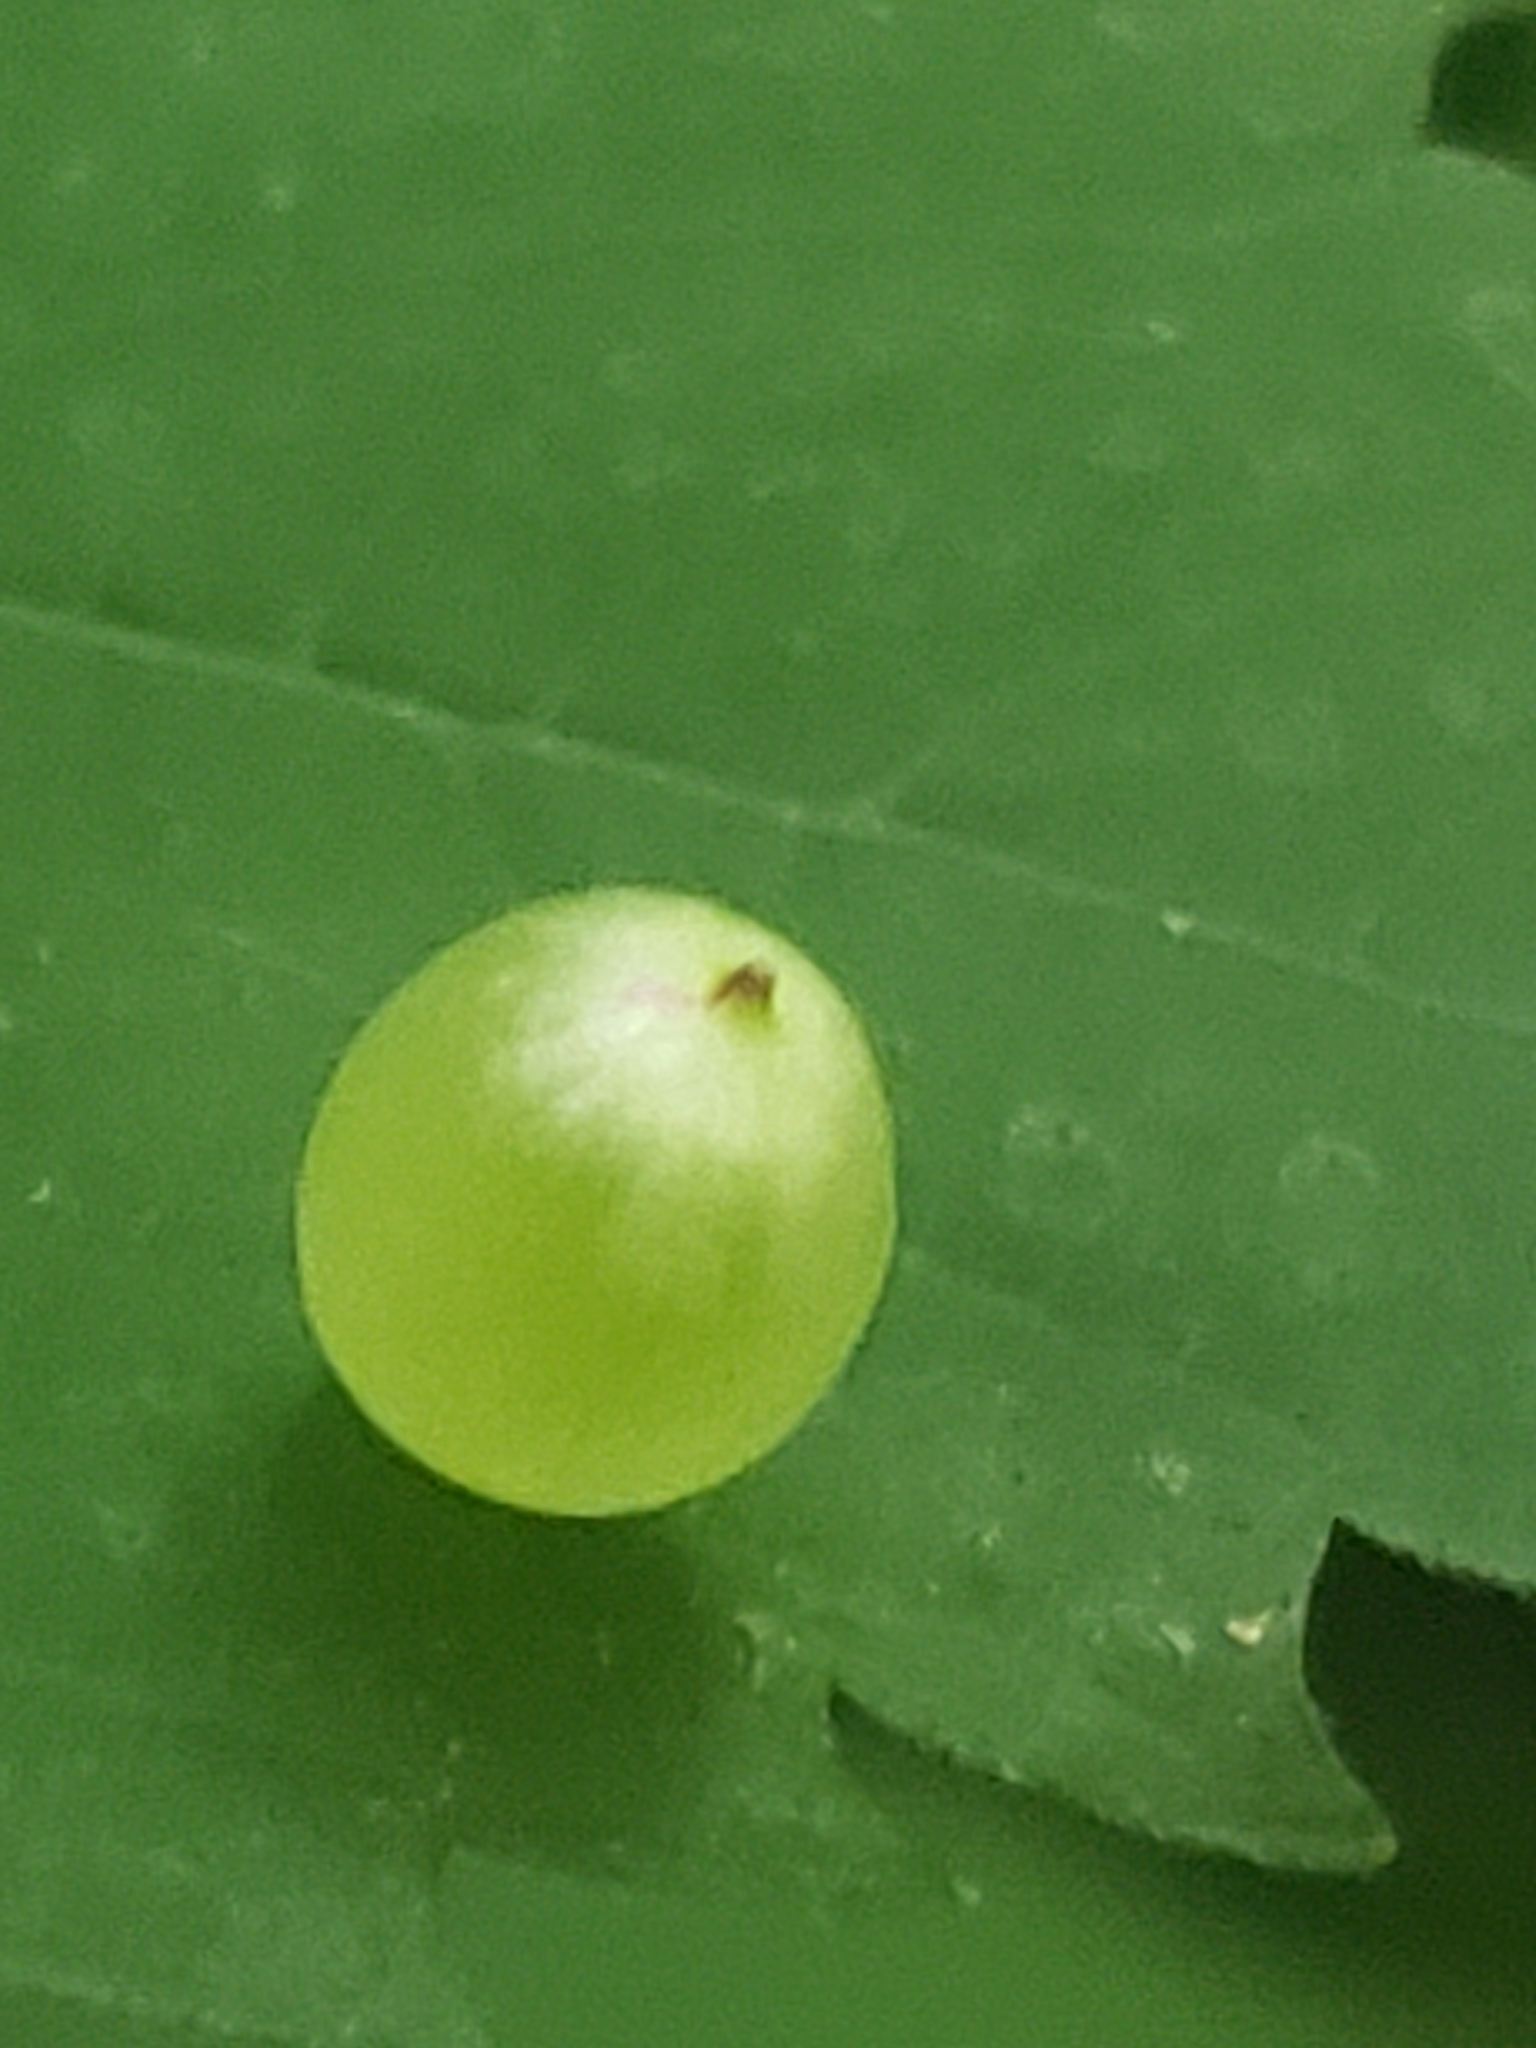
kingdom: Animalia
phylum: Arthropoda
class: Insecta
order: Diptera
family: Cecidomyiidae
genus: Dasineura
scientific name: Dasineura investita
